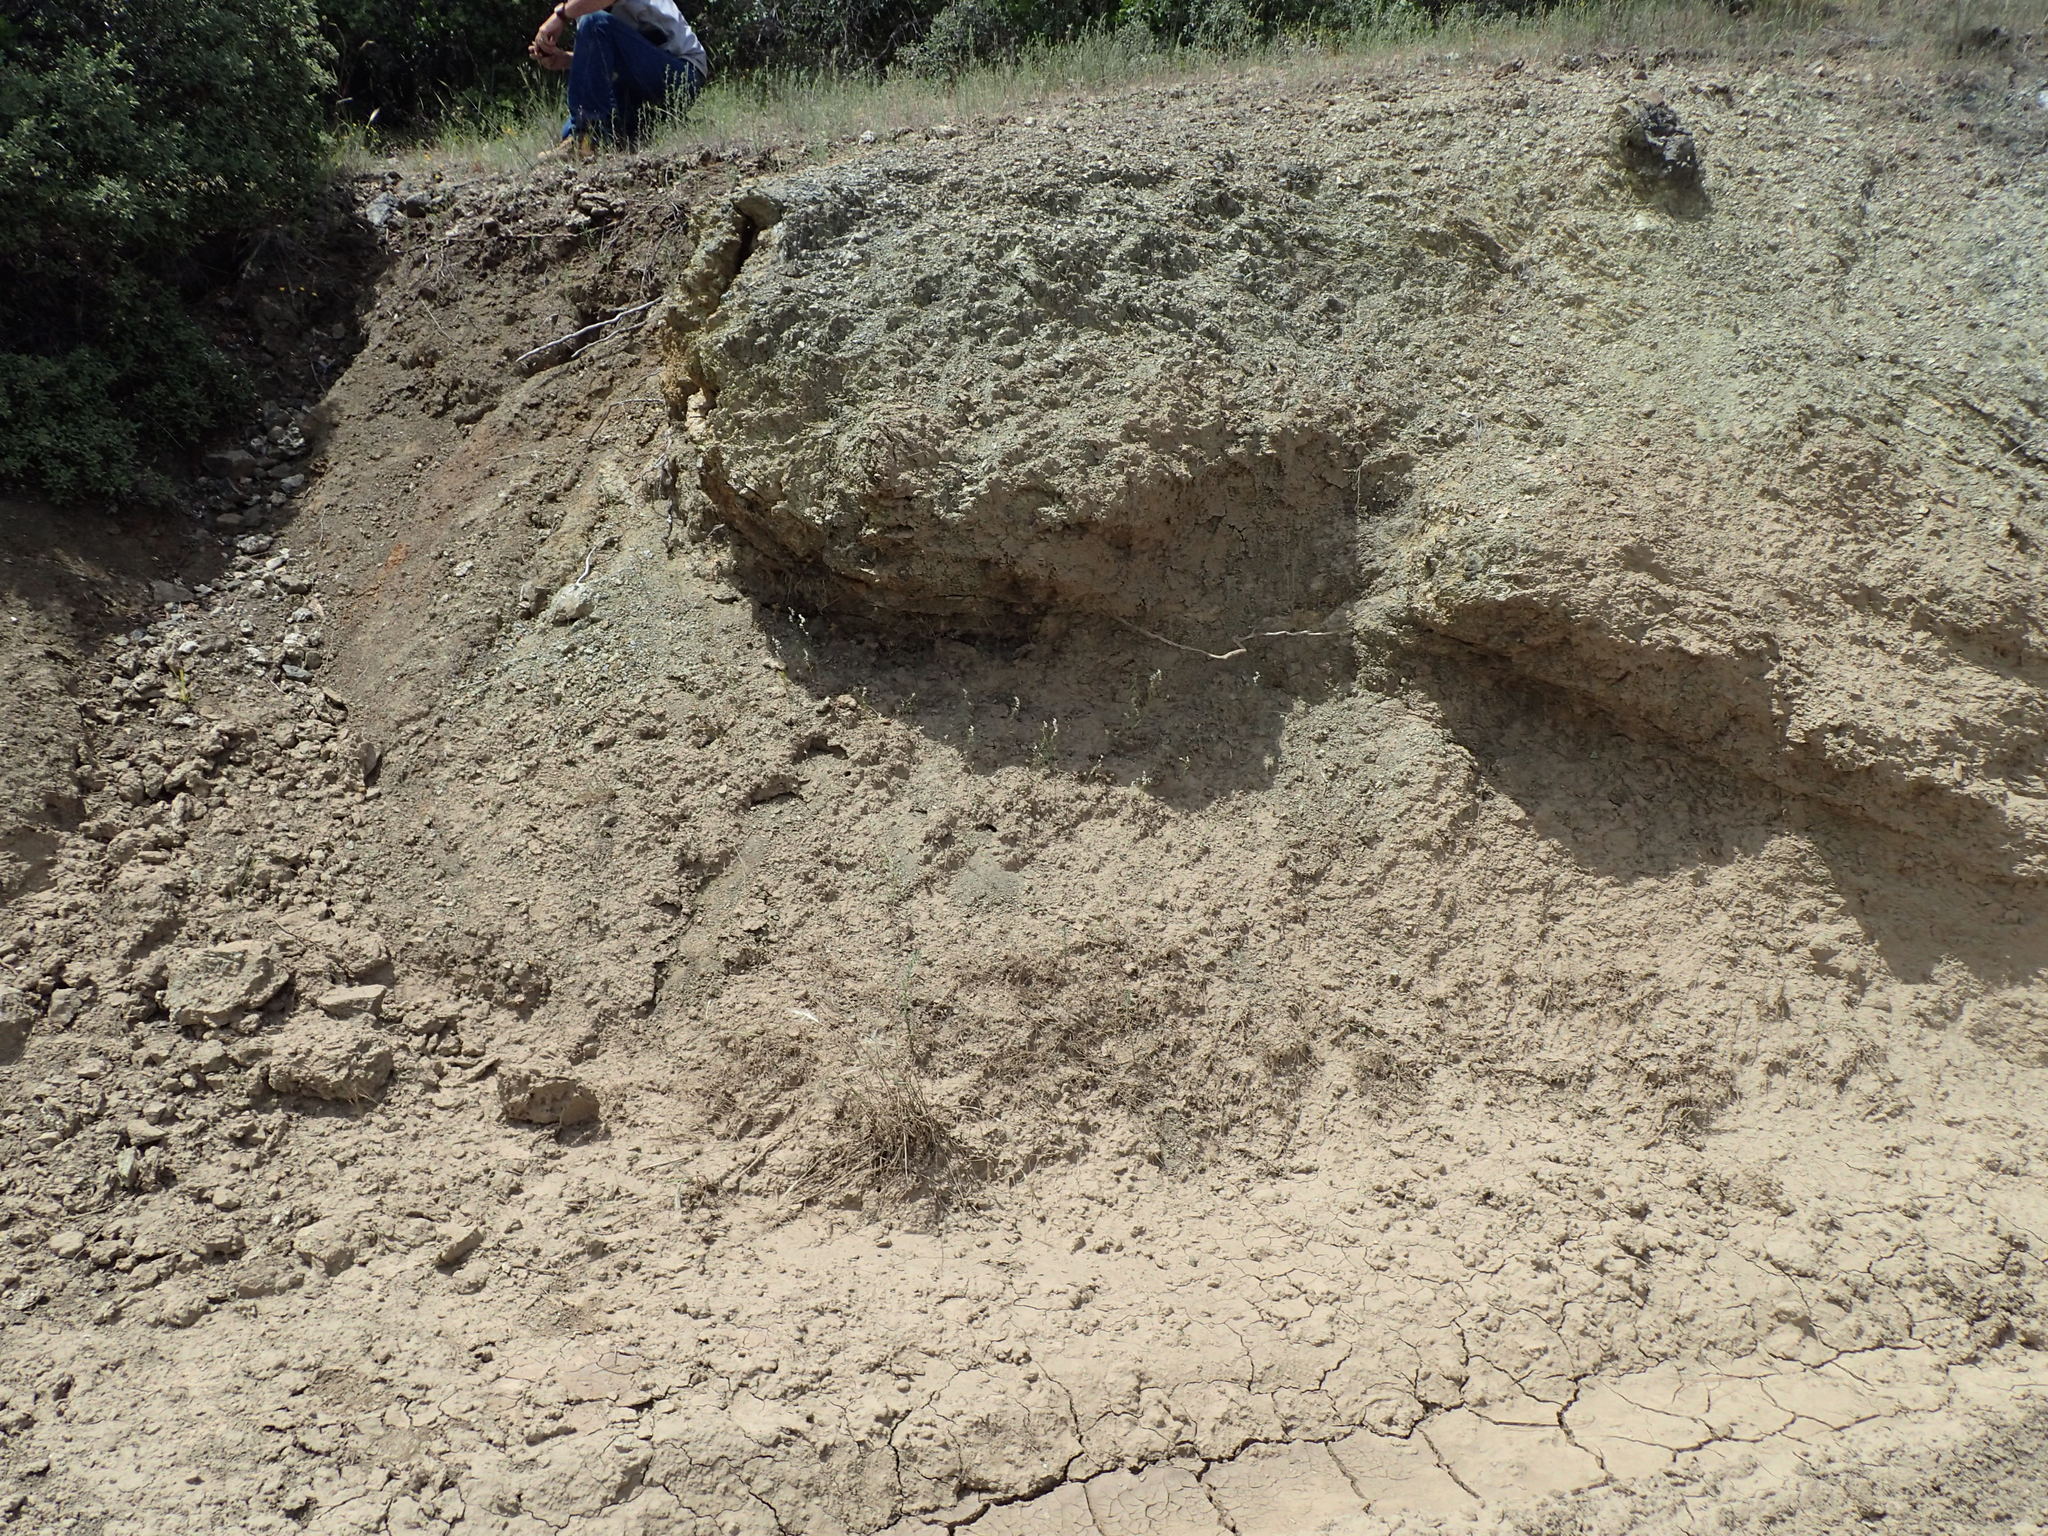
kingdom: Plantae
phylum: Tracheophyta
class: Magnoliopsida
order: Brassicales
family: Brassicaceae
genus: Streptanthus
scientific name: Streptanthus barbiger
